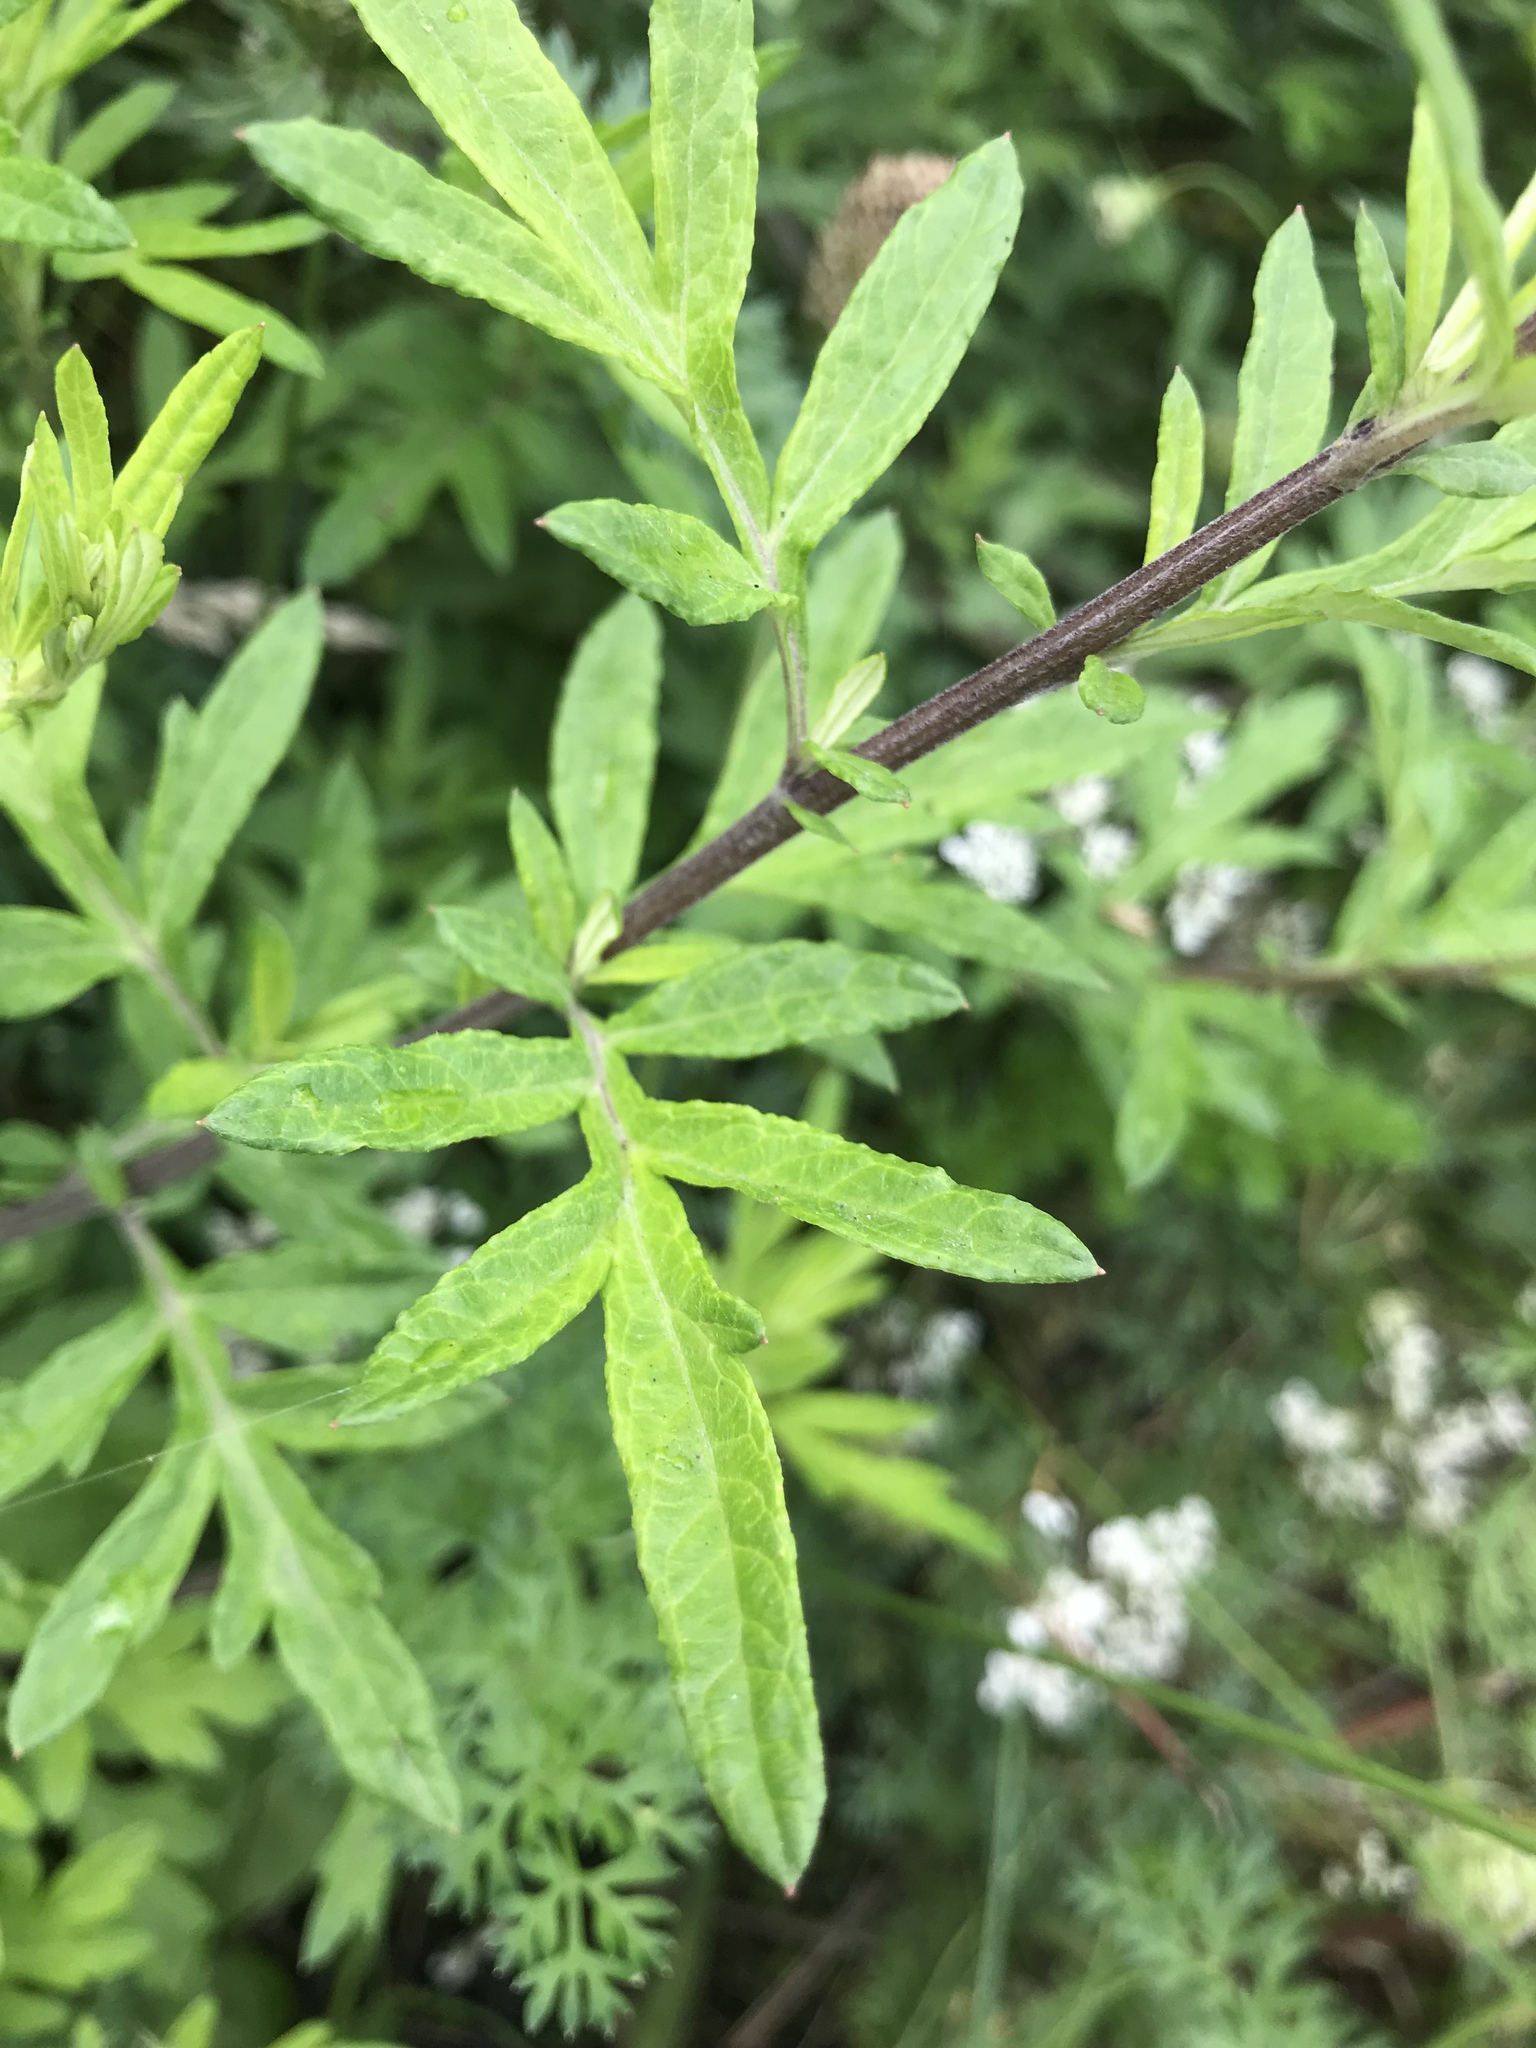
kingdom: Plantae
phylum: Tracheophyta
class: Magnoliopsida
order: Asterales
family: Asteraceae
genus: Artemisia
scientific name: Artemisia vulgaris
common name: Mugwort
